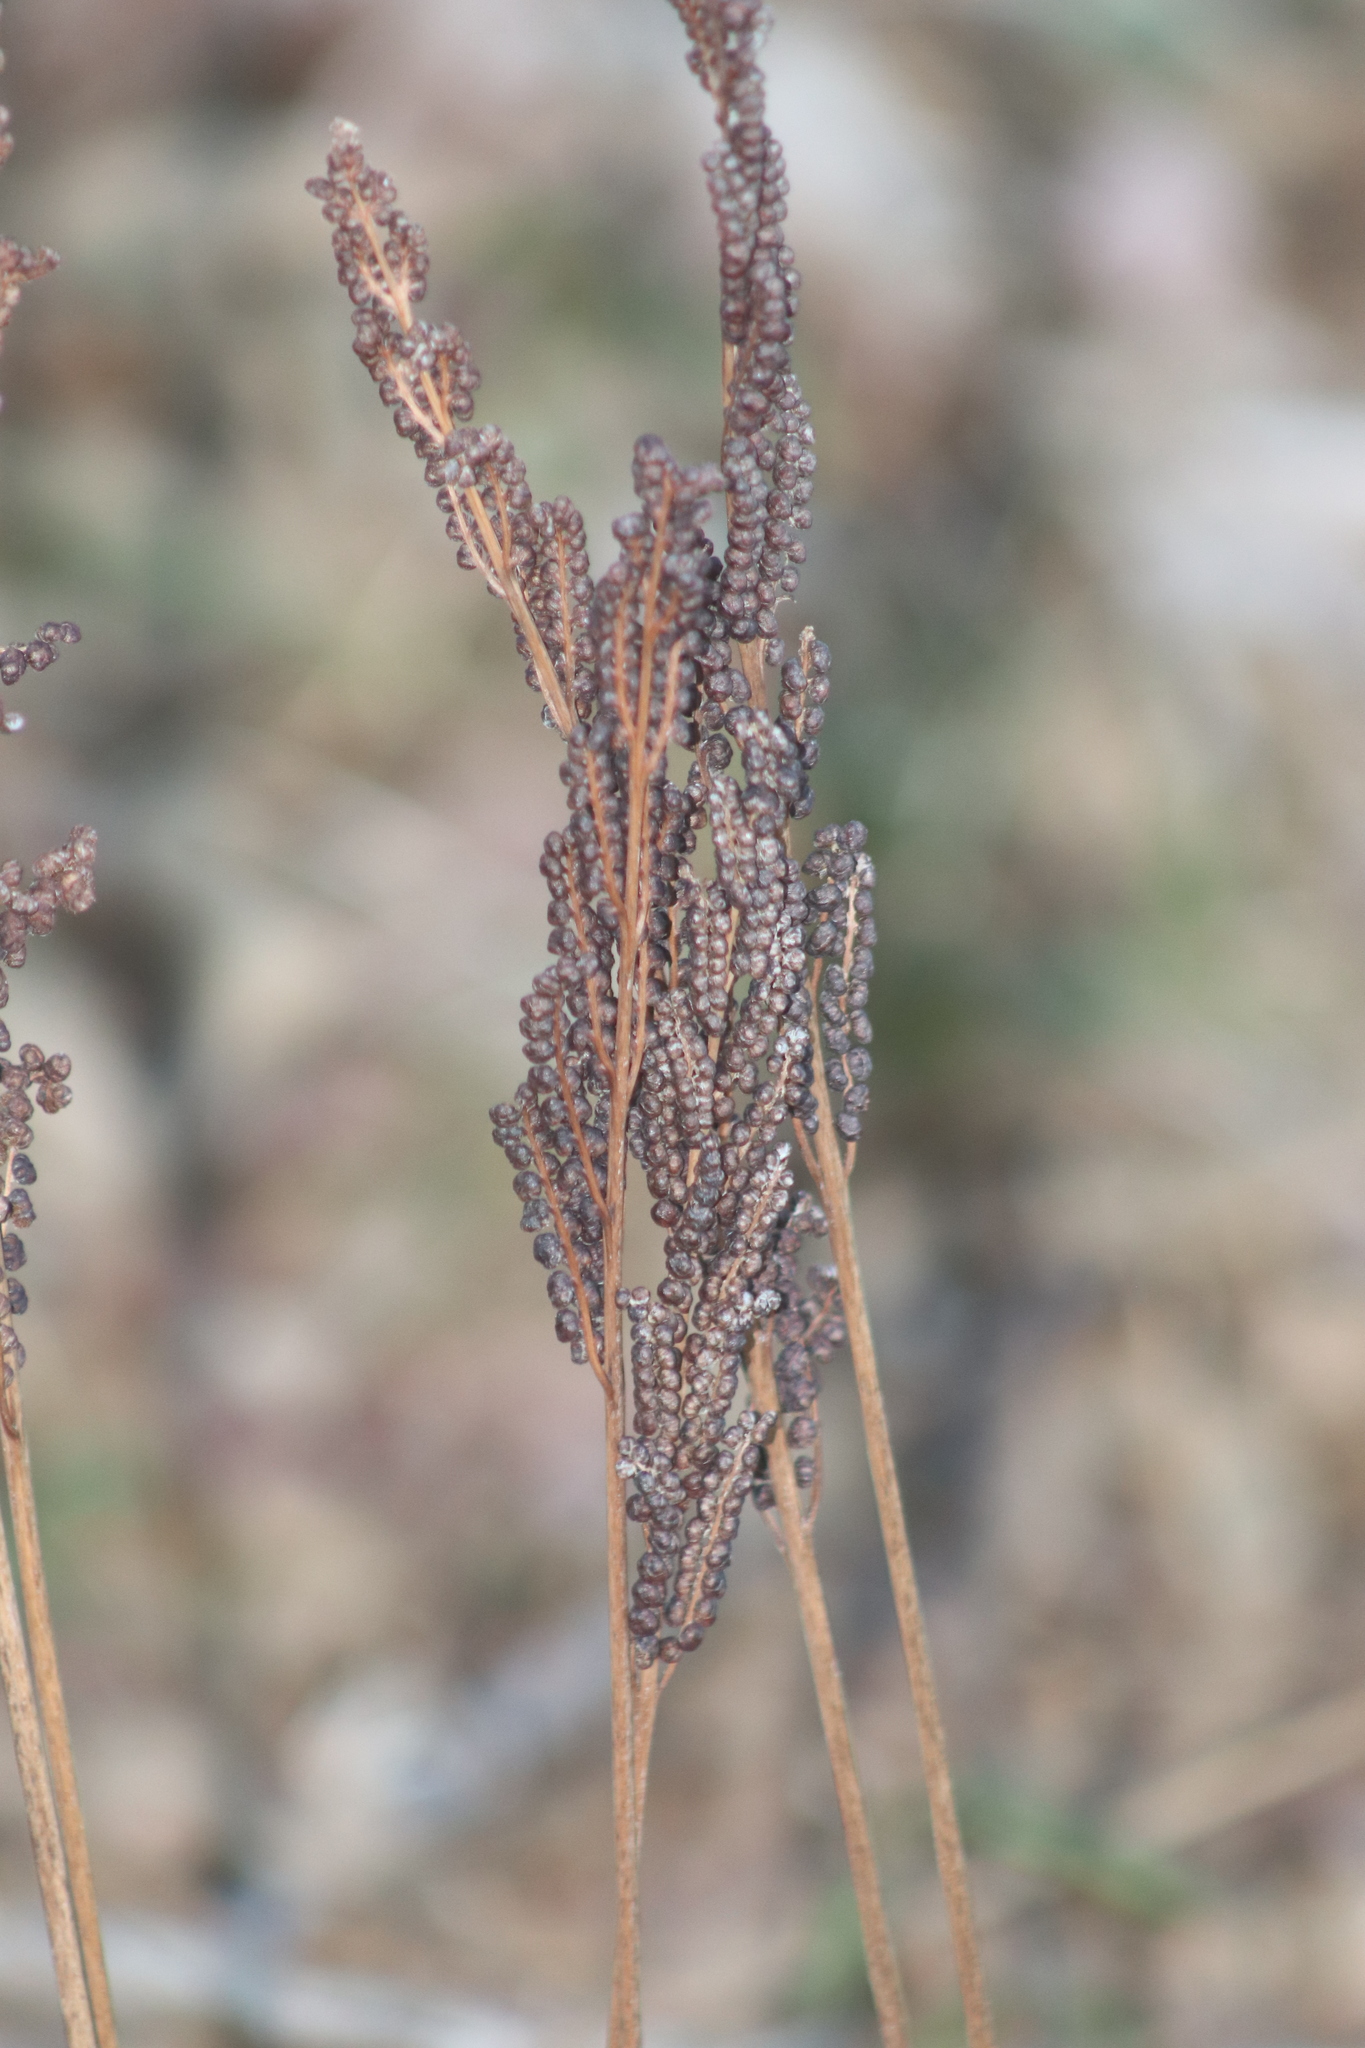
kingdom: Plantae
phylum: Tracheophyta
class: Polypodiopsida
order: Polypodiales
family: Onocleaceae
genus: Onoclea
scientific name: Onoclea sensibilis
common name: Sensitive fern
